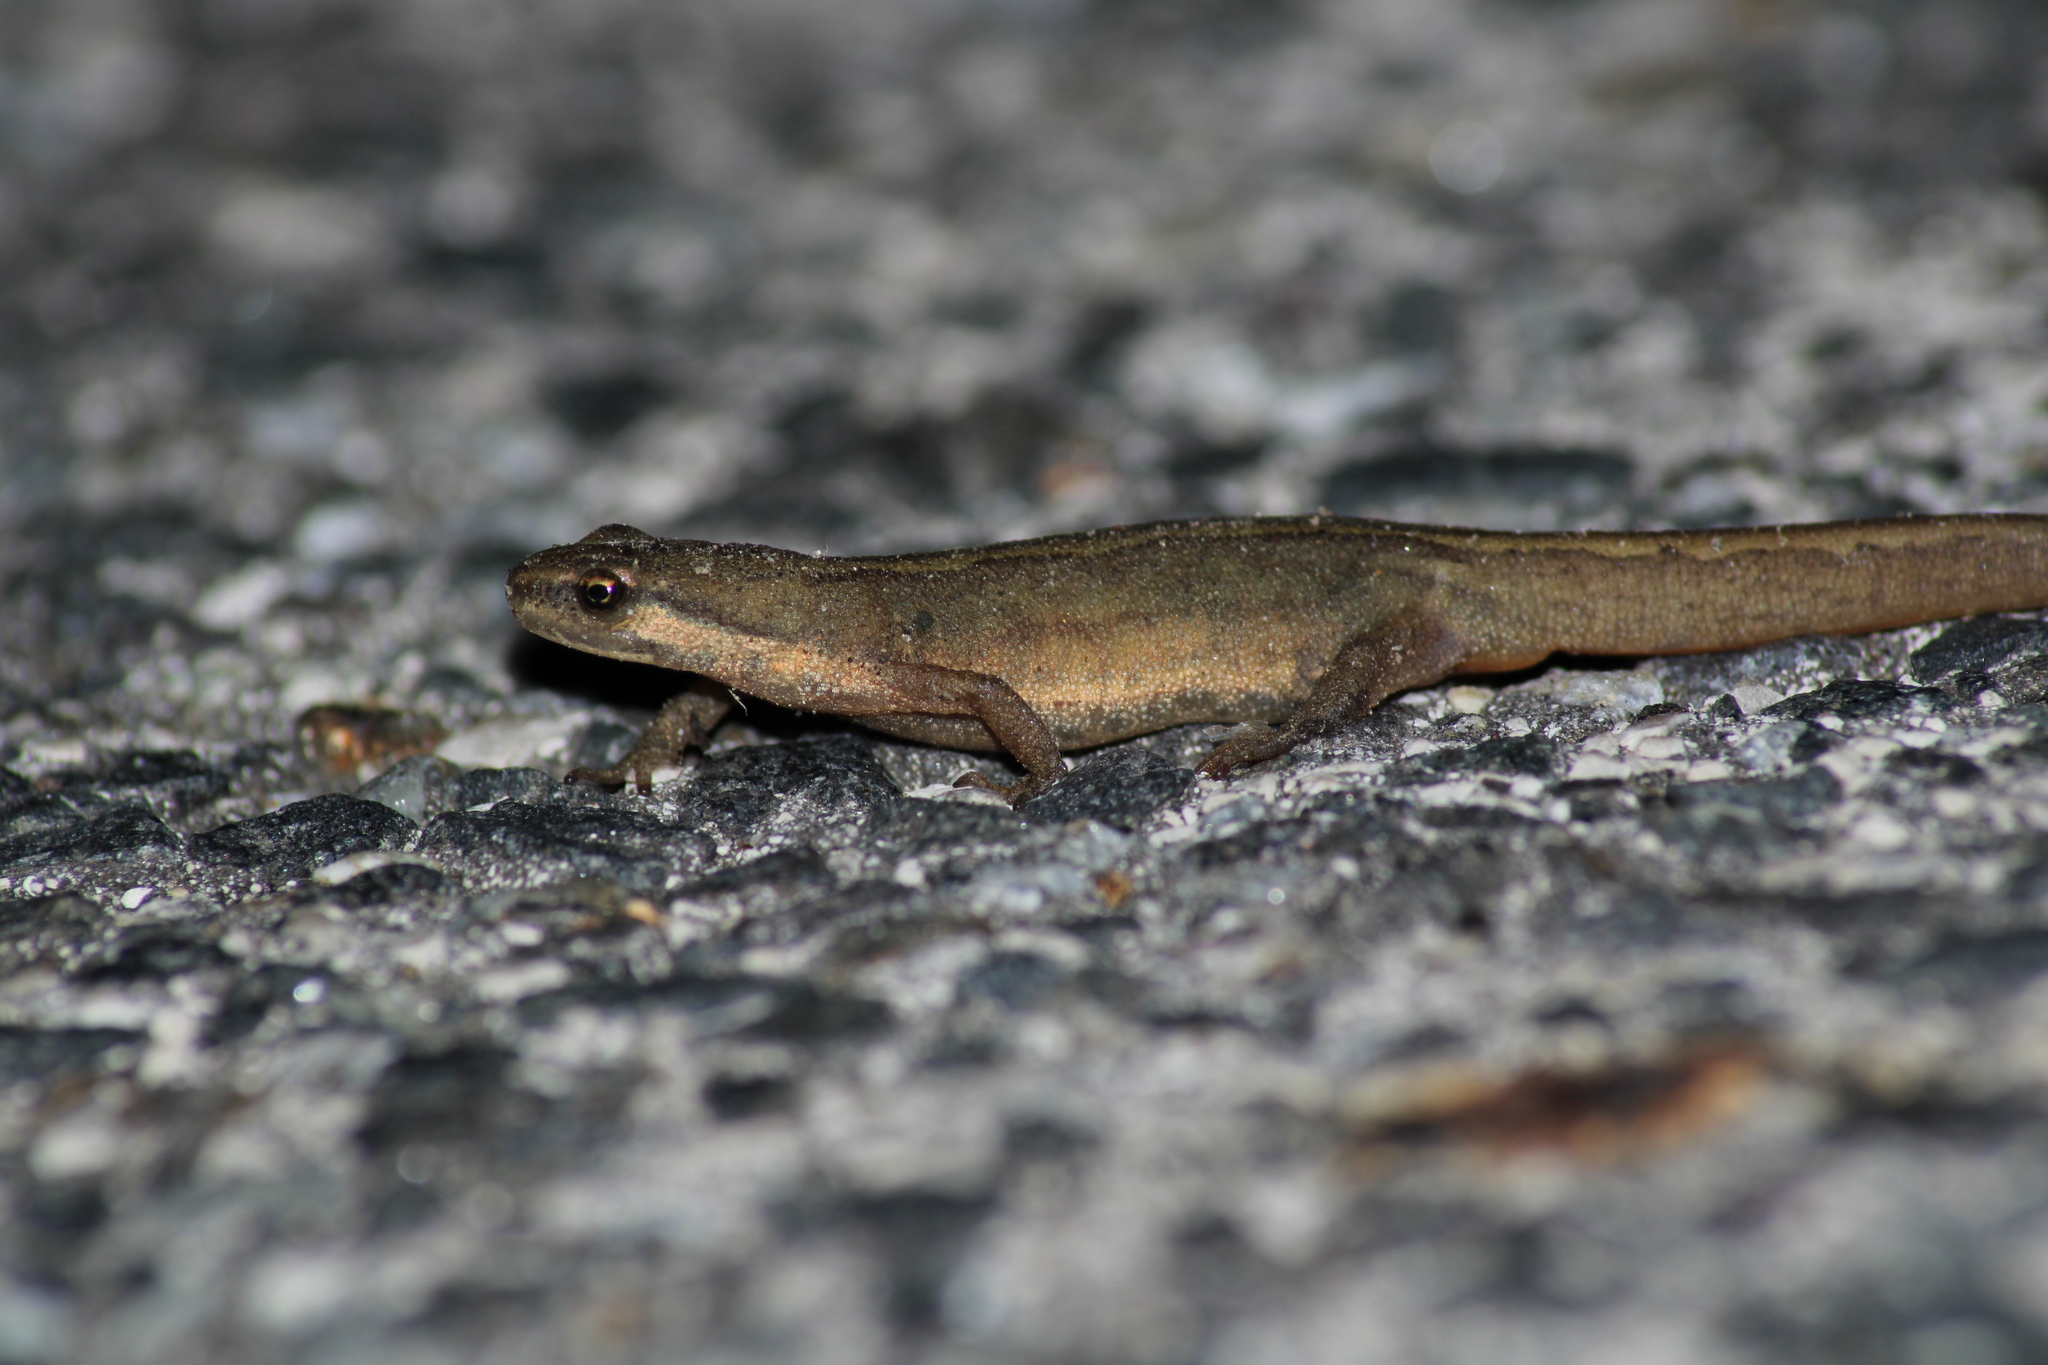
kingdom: Animalia
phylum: Chordata
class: Amphibia
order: Caudata
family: Salamandridae
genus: Lissotriton
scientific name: Lissotriton vulgaris
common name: Smooth newt
